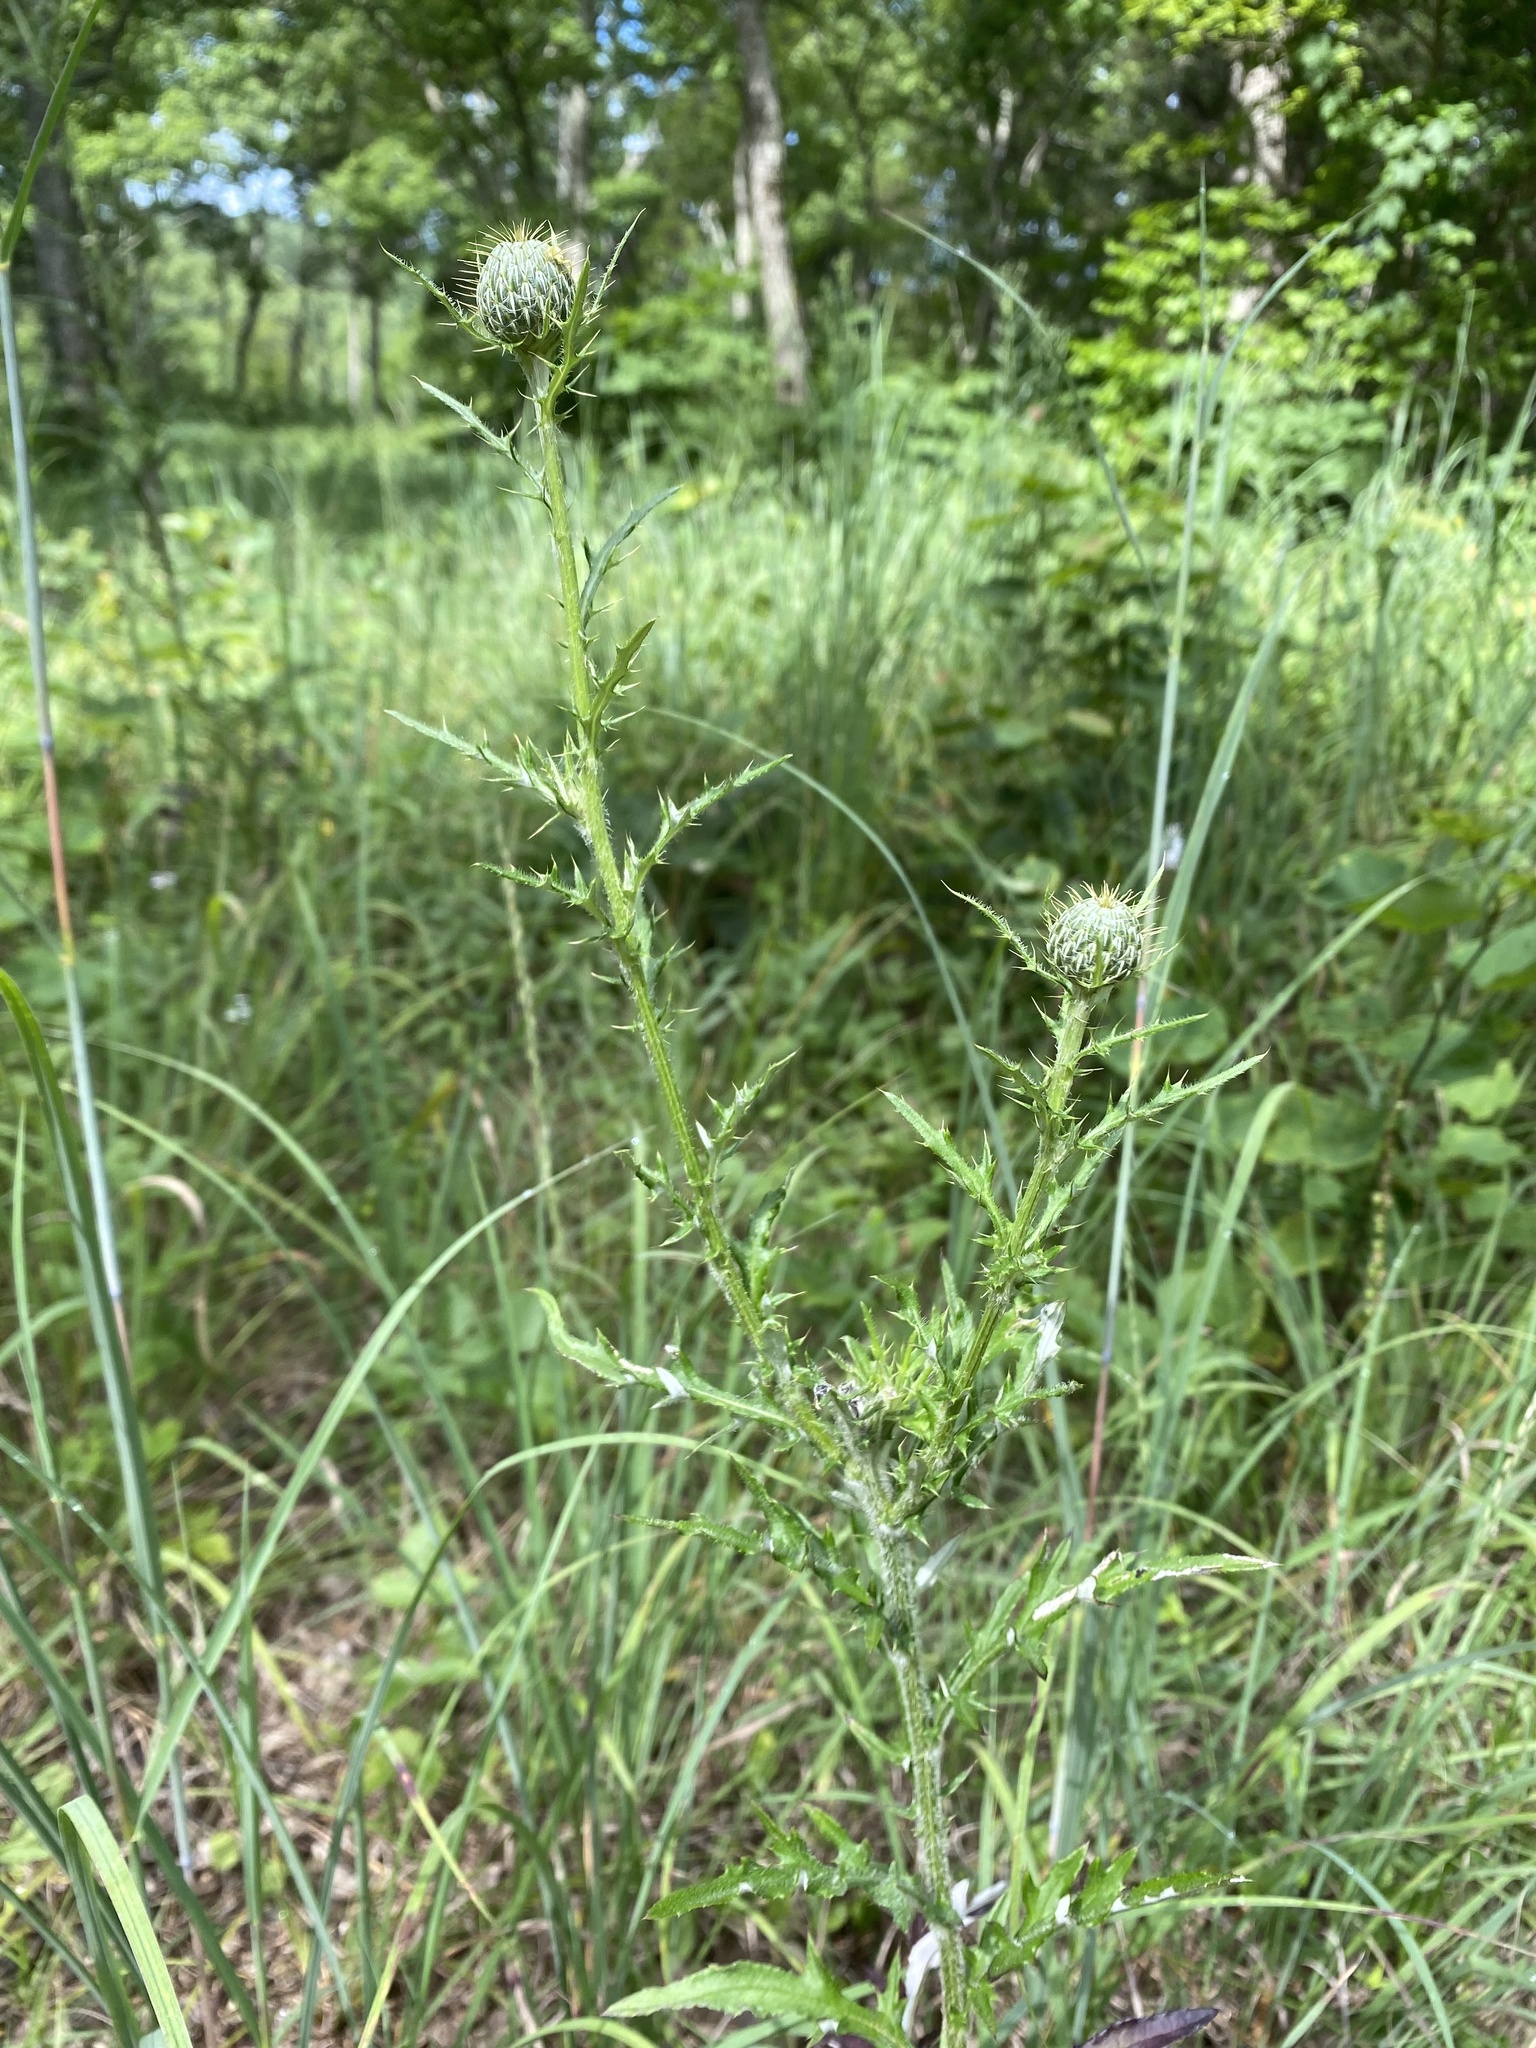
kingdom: Plantae
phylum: Tracheophyta
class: Magnoliopsida
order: Asterales
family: Asteraceae
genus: Cirsium
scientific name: Cirsium altissimum
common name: Roadside thistle
